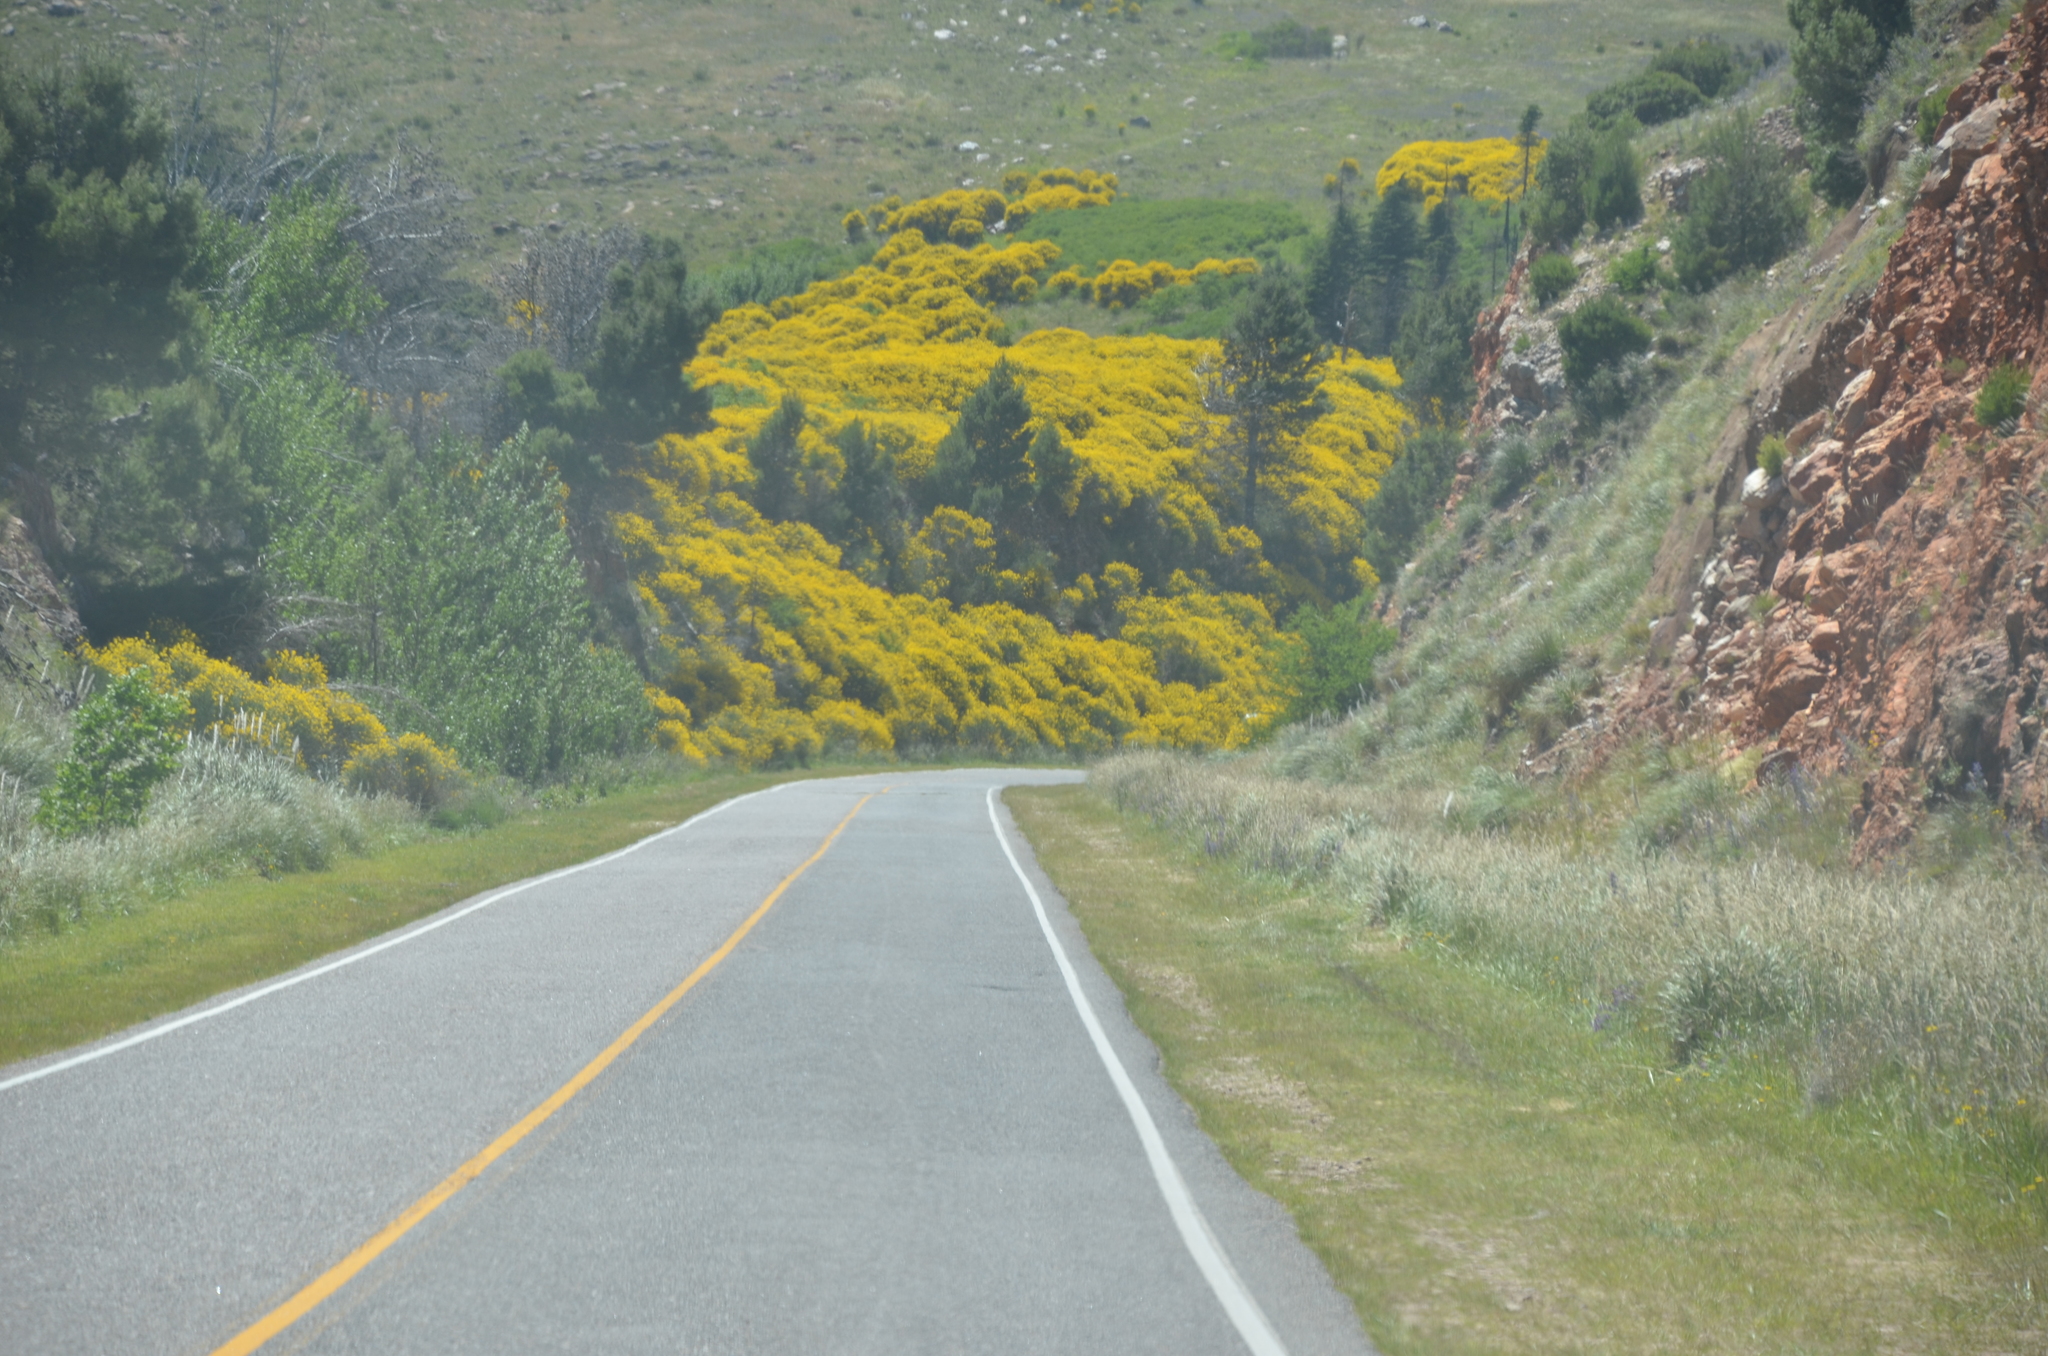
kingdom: Plantae
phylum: Tracheophyta
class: Magnoliopsida
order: Fabales
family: Fabaceae
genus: Spartium
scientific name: Spartium junceum
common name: Spanish broom
